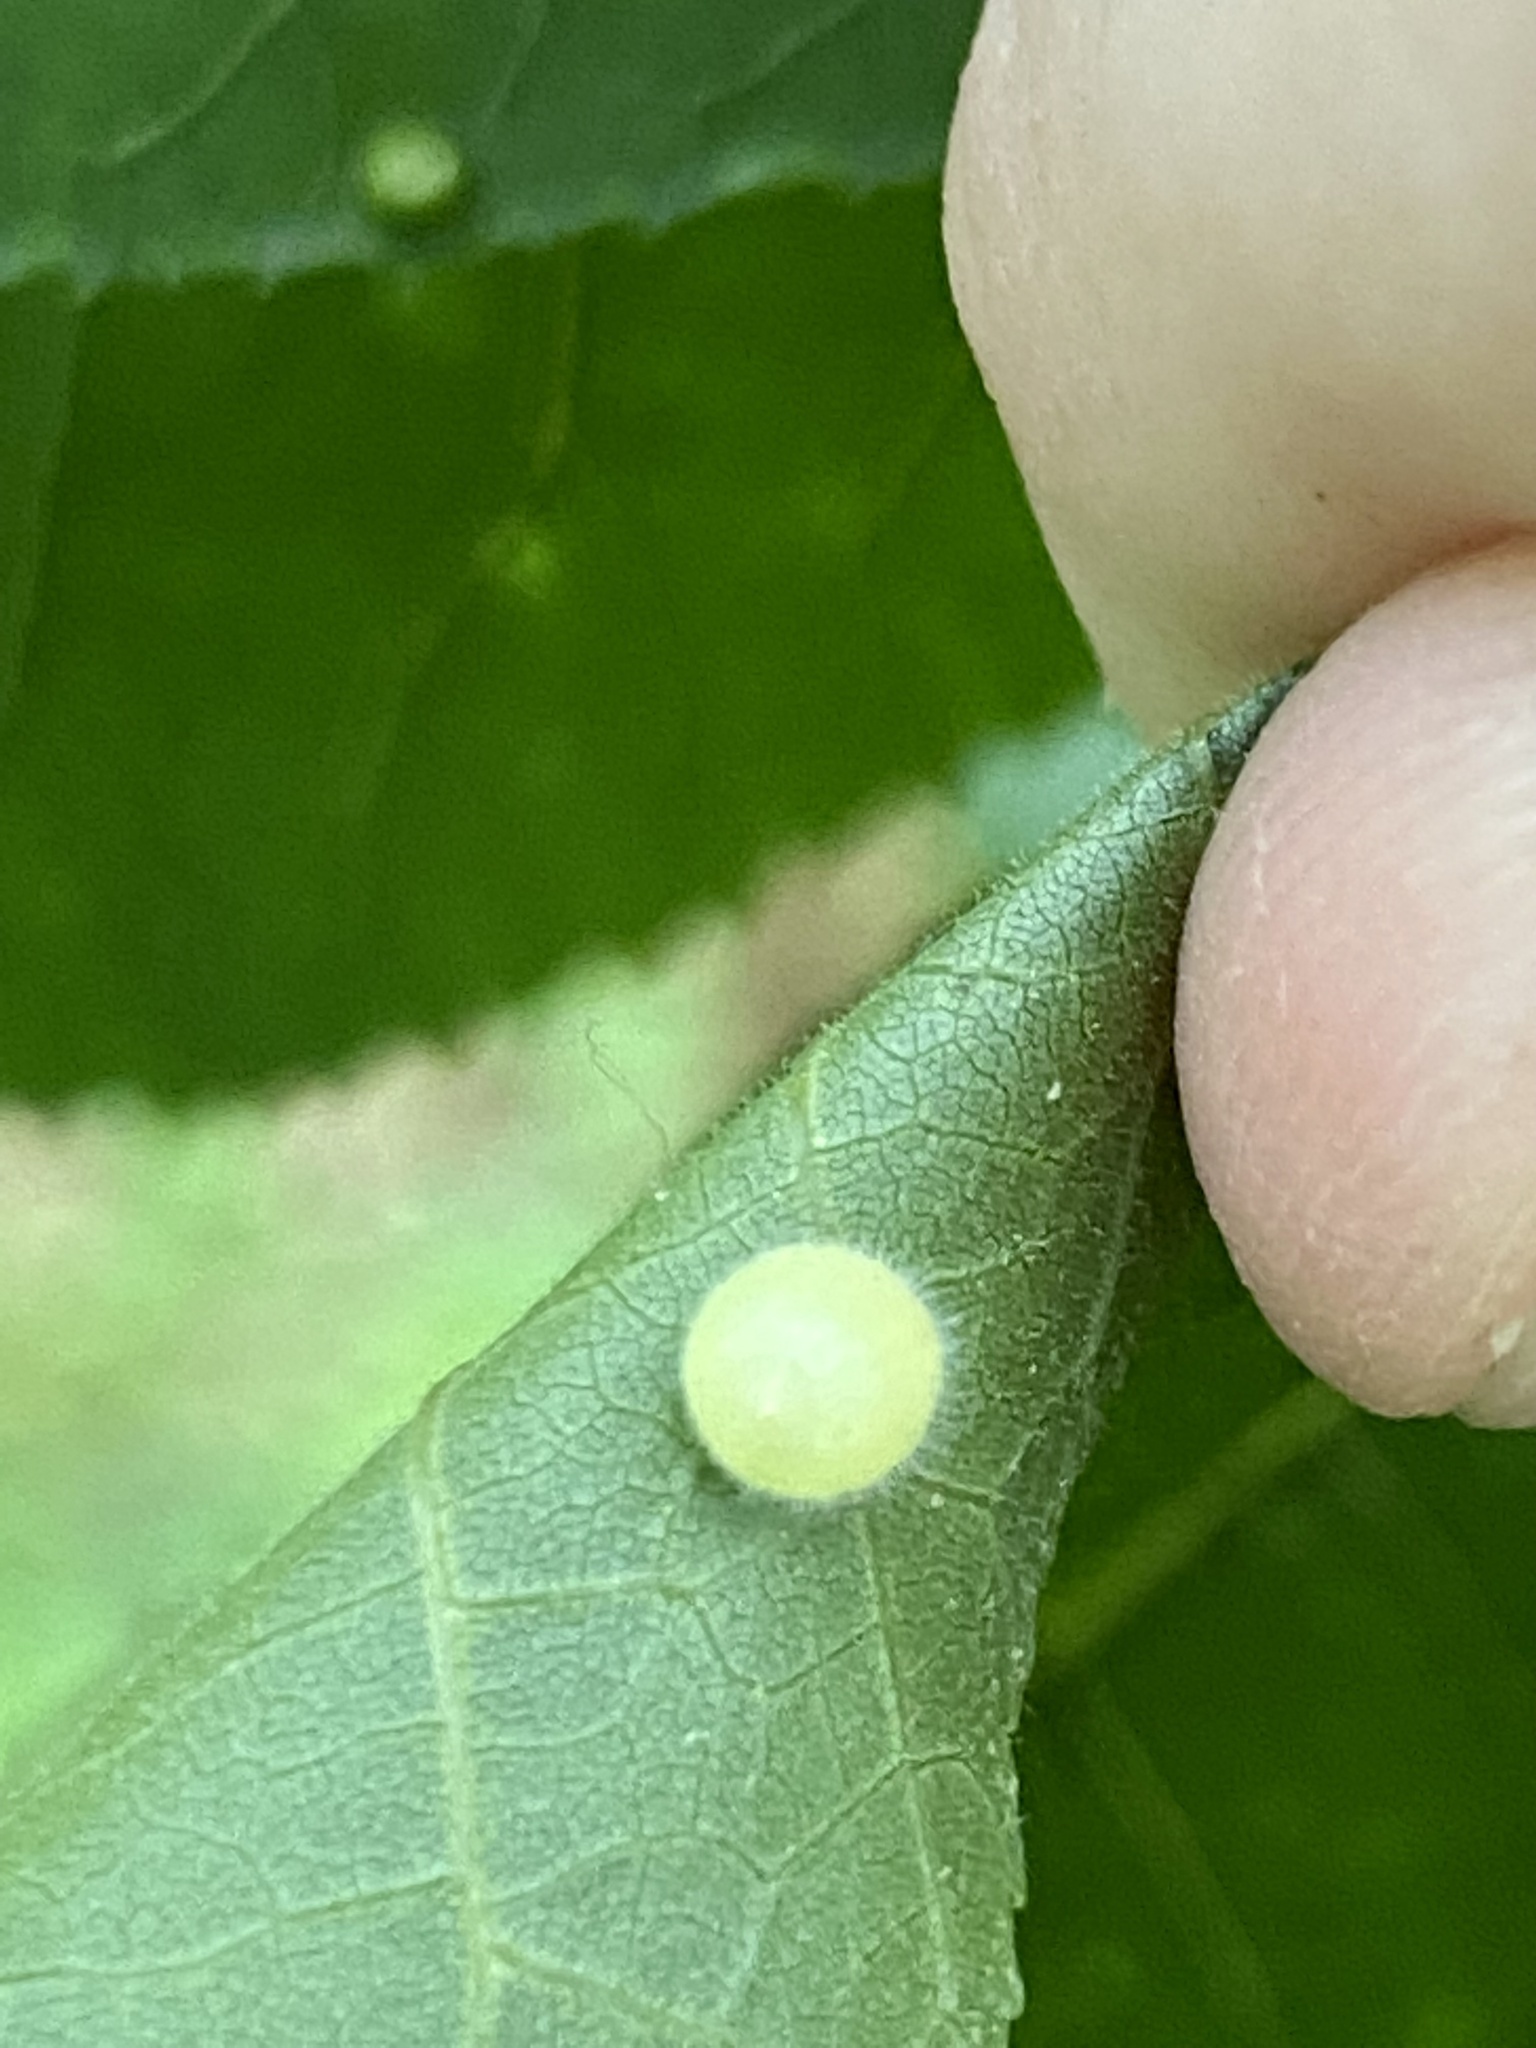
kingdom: Animalia
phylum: Arthropoda
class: Insecta
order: Diptera
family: Cecidomyiidae
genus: Caryomyia
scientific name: Caryomyia cilidolium
